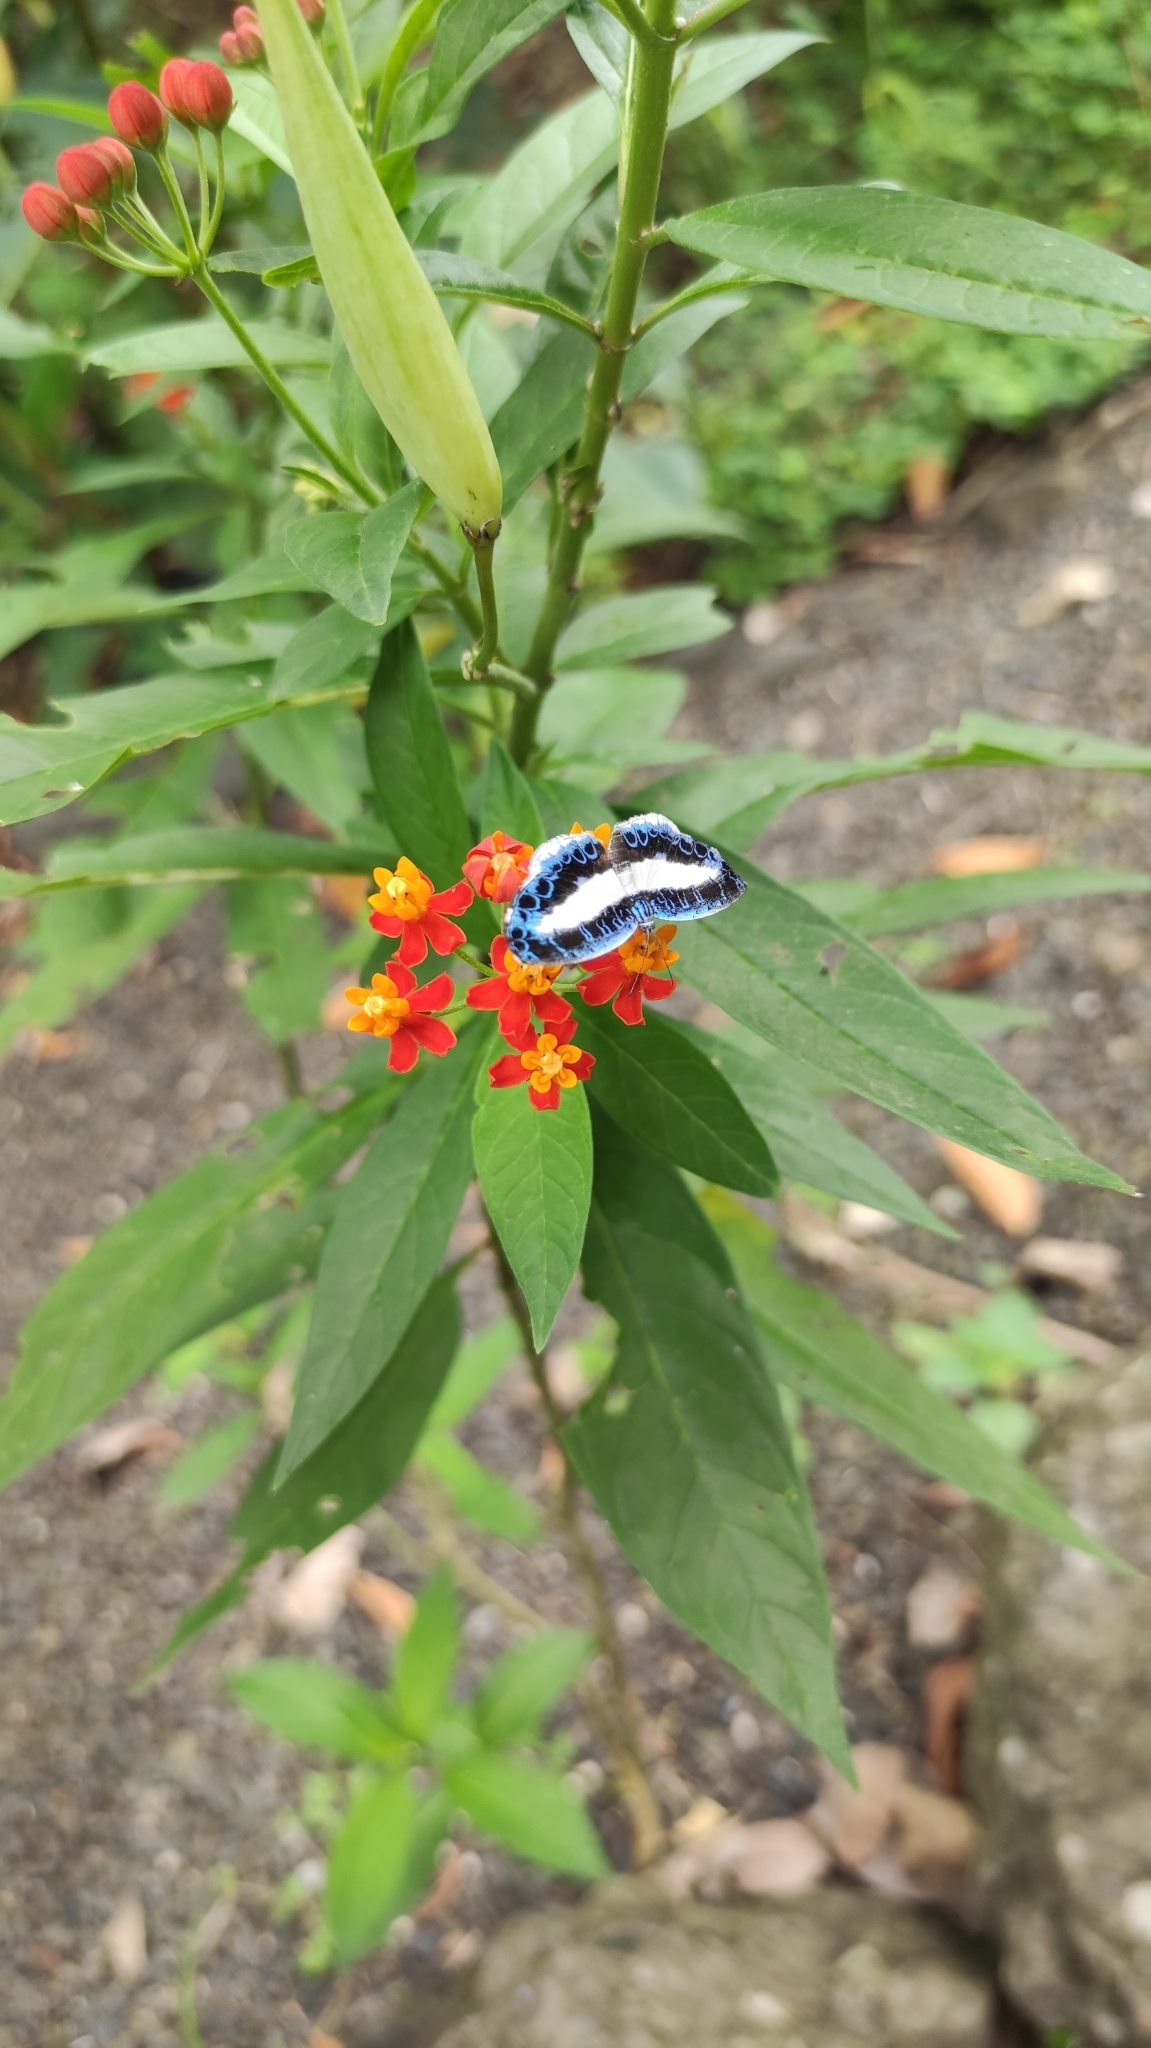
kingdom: Animalia
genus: Nymphidium
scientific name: Nymphidium mantus
